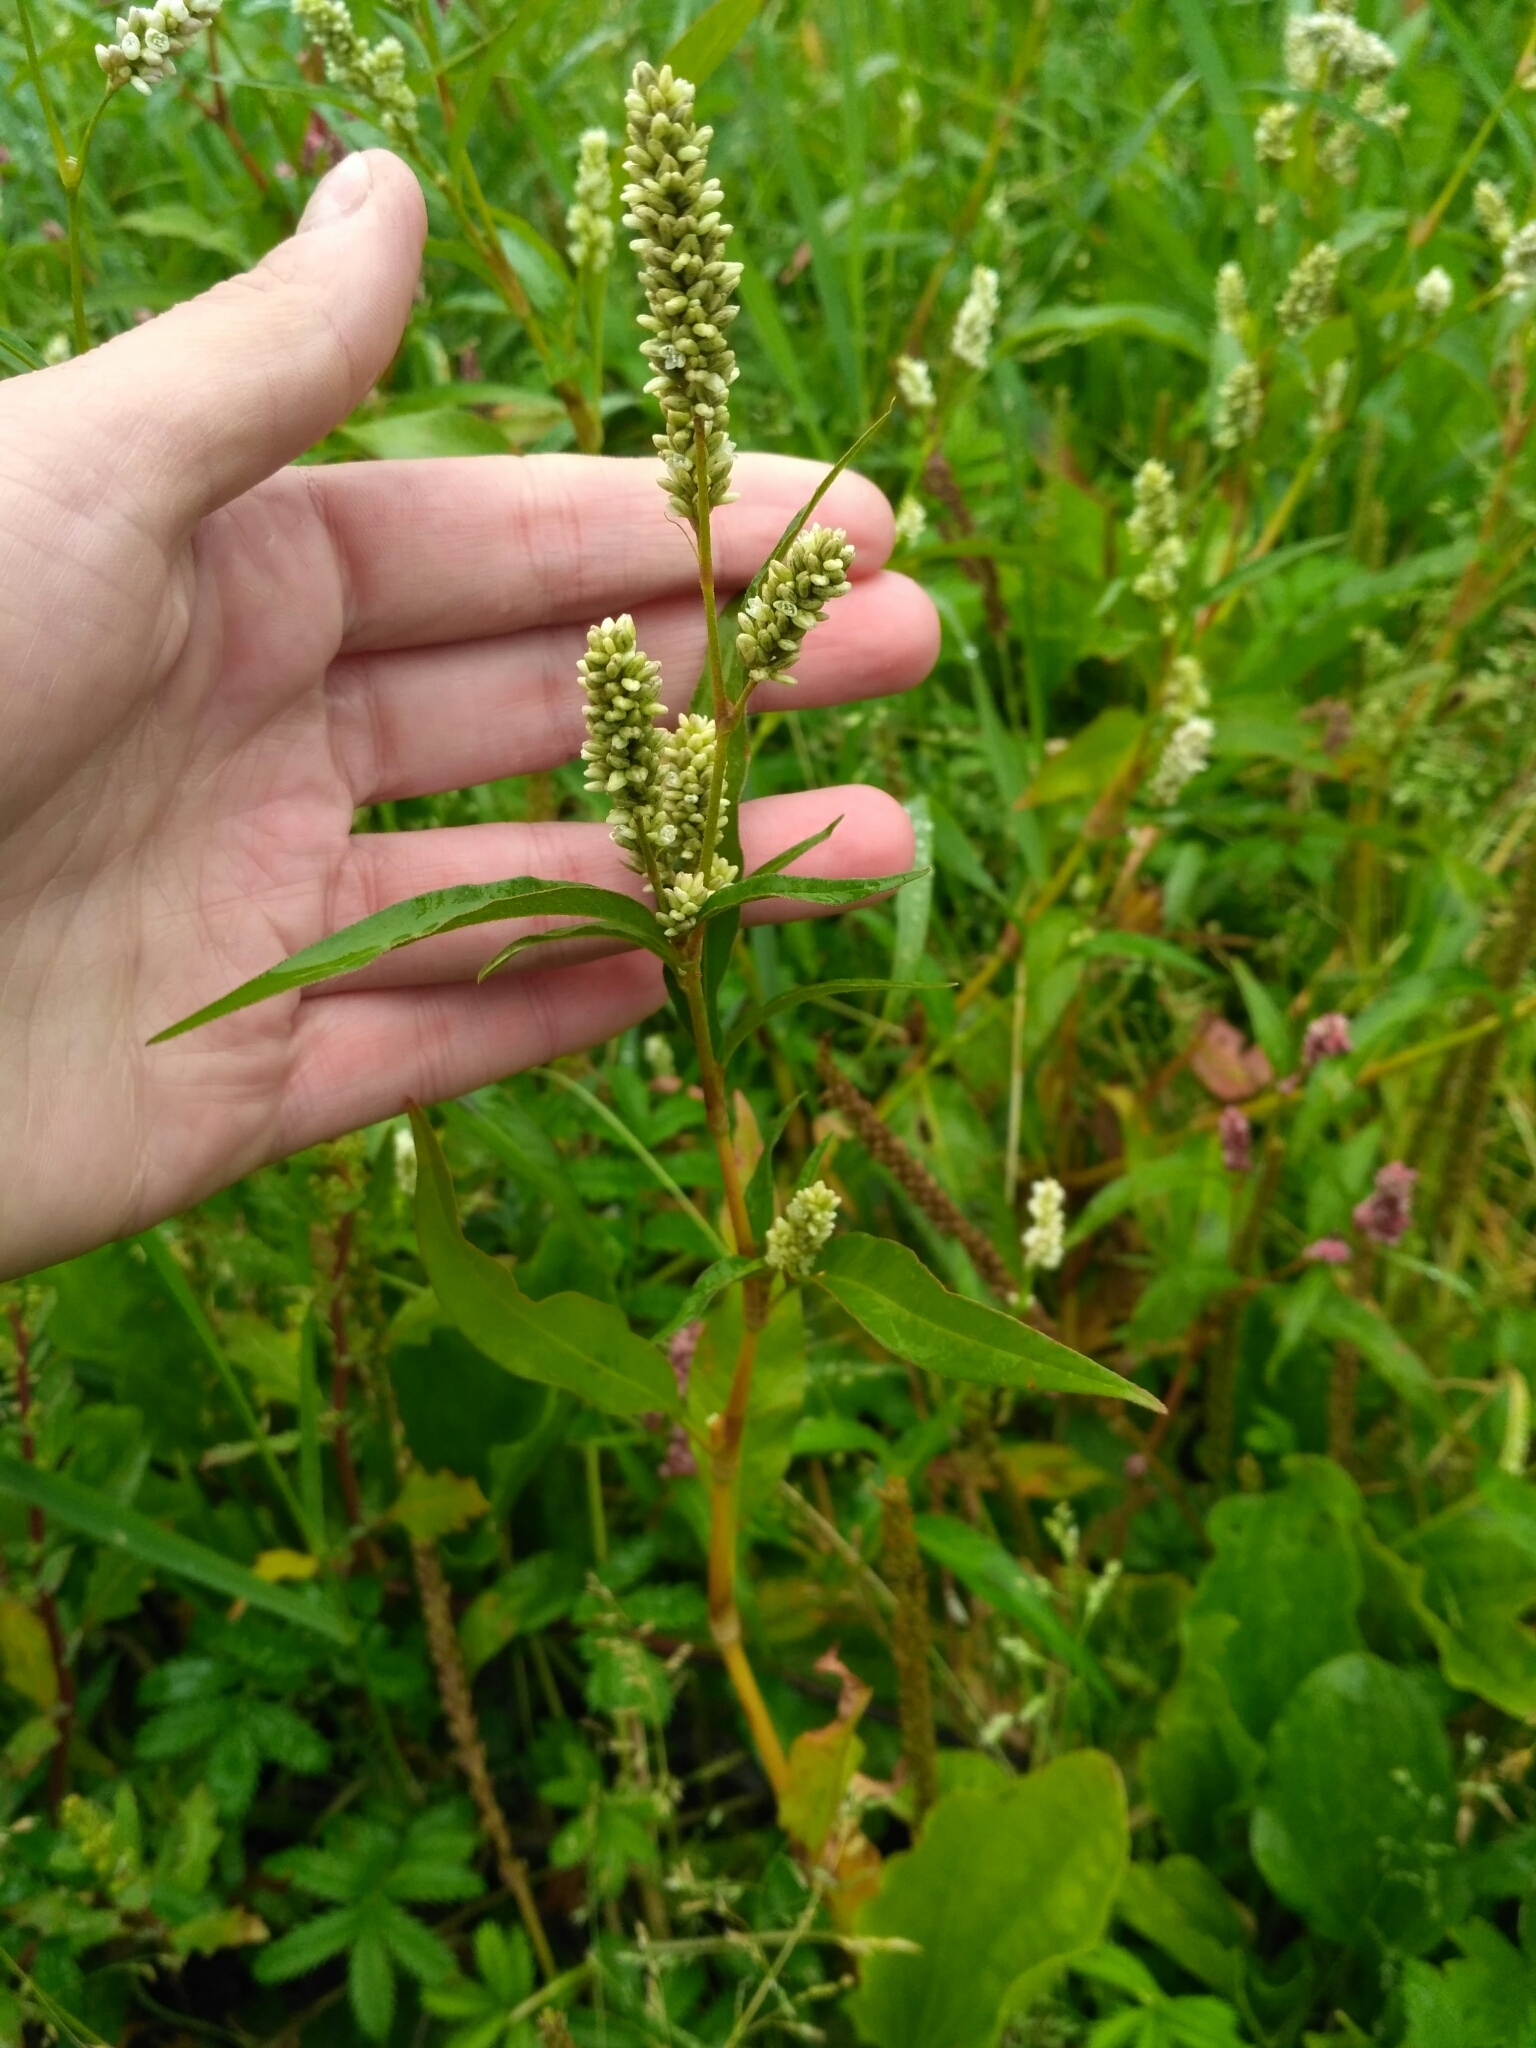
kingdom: Plantae
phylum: Tracheophyta
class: Magnoliopsida
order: Caryophyllales
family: Polygonaceae
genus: Persicaria
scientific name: Persicaria lapathifolia
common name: Curlytop knotweed
